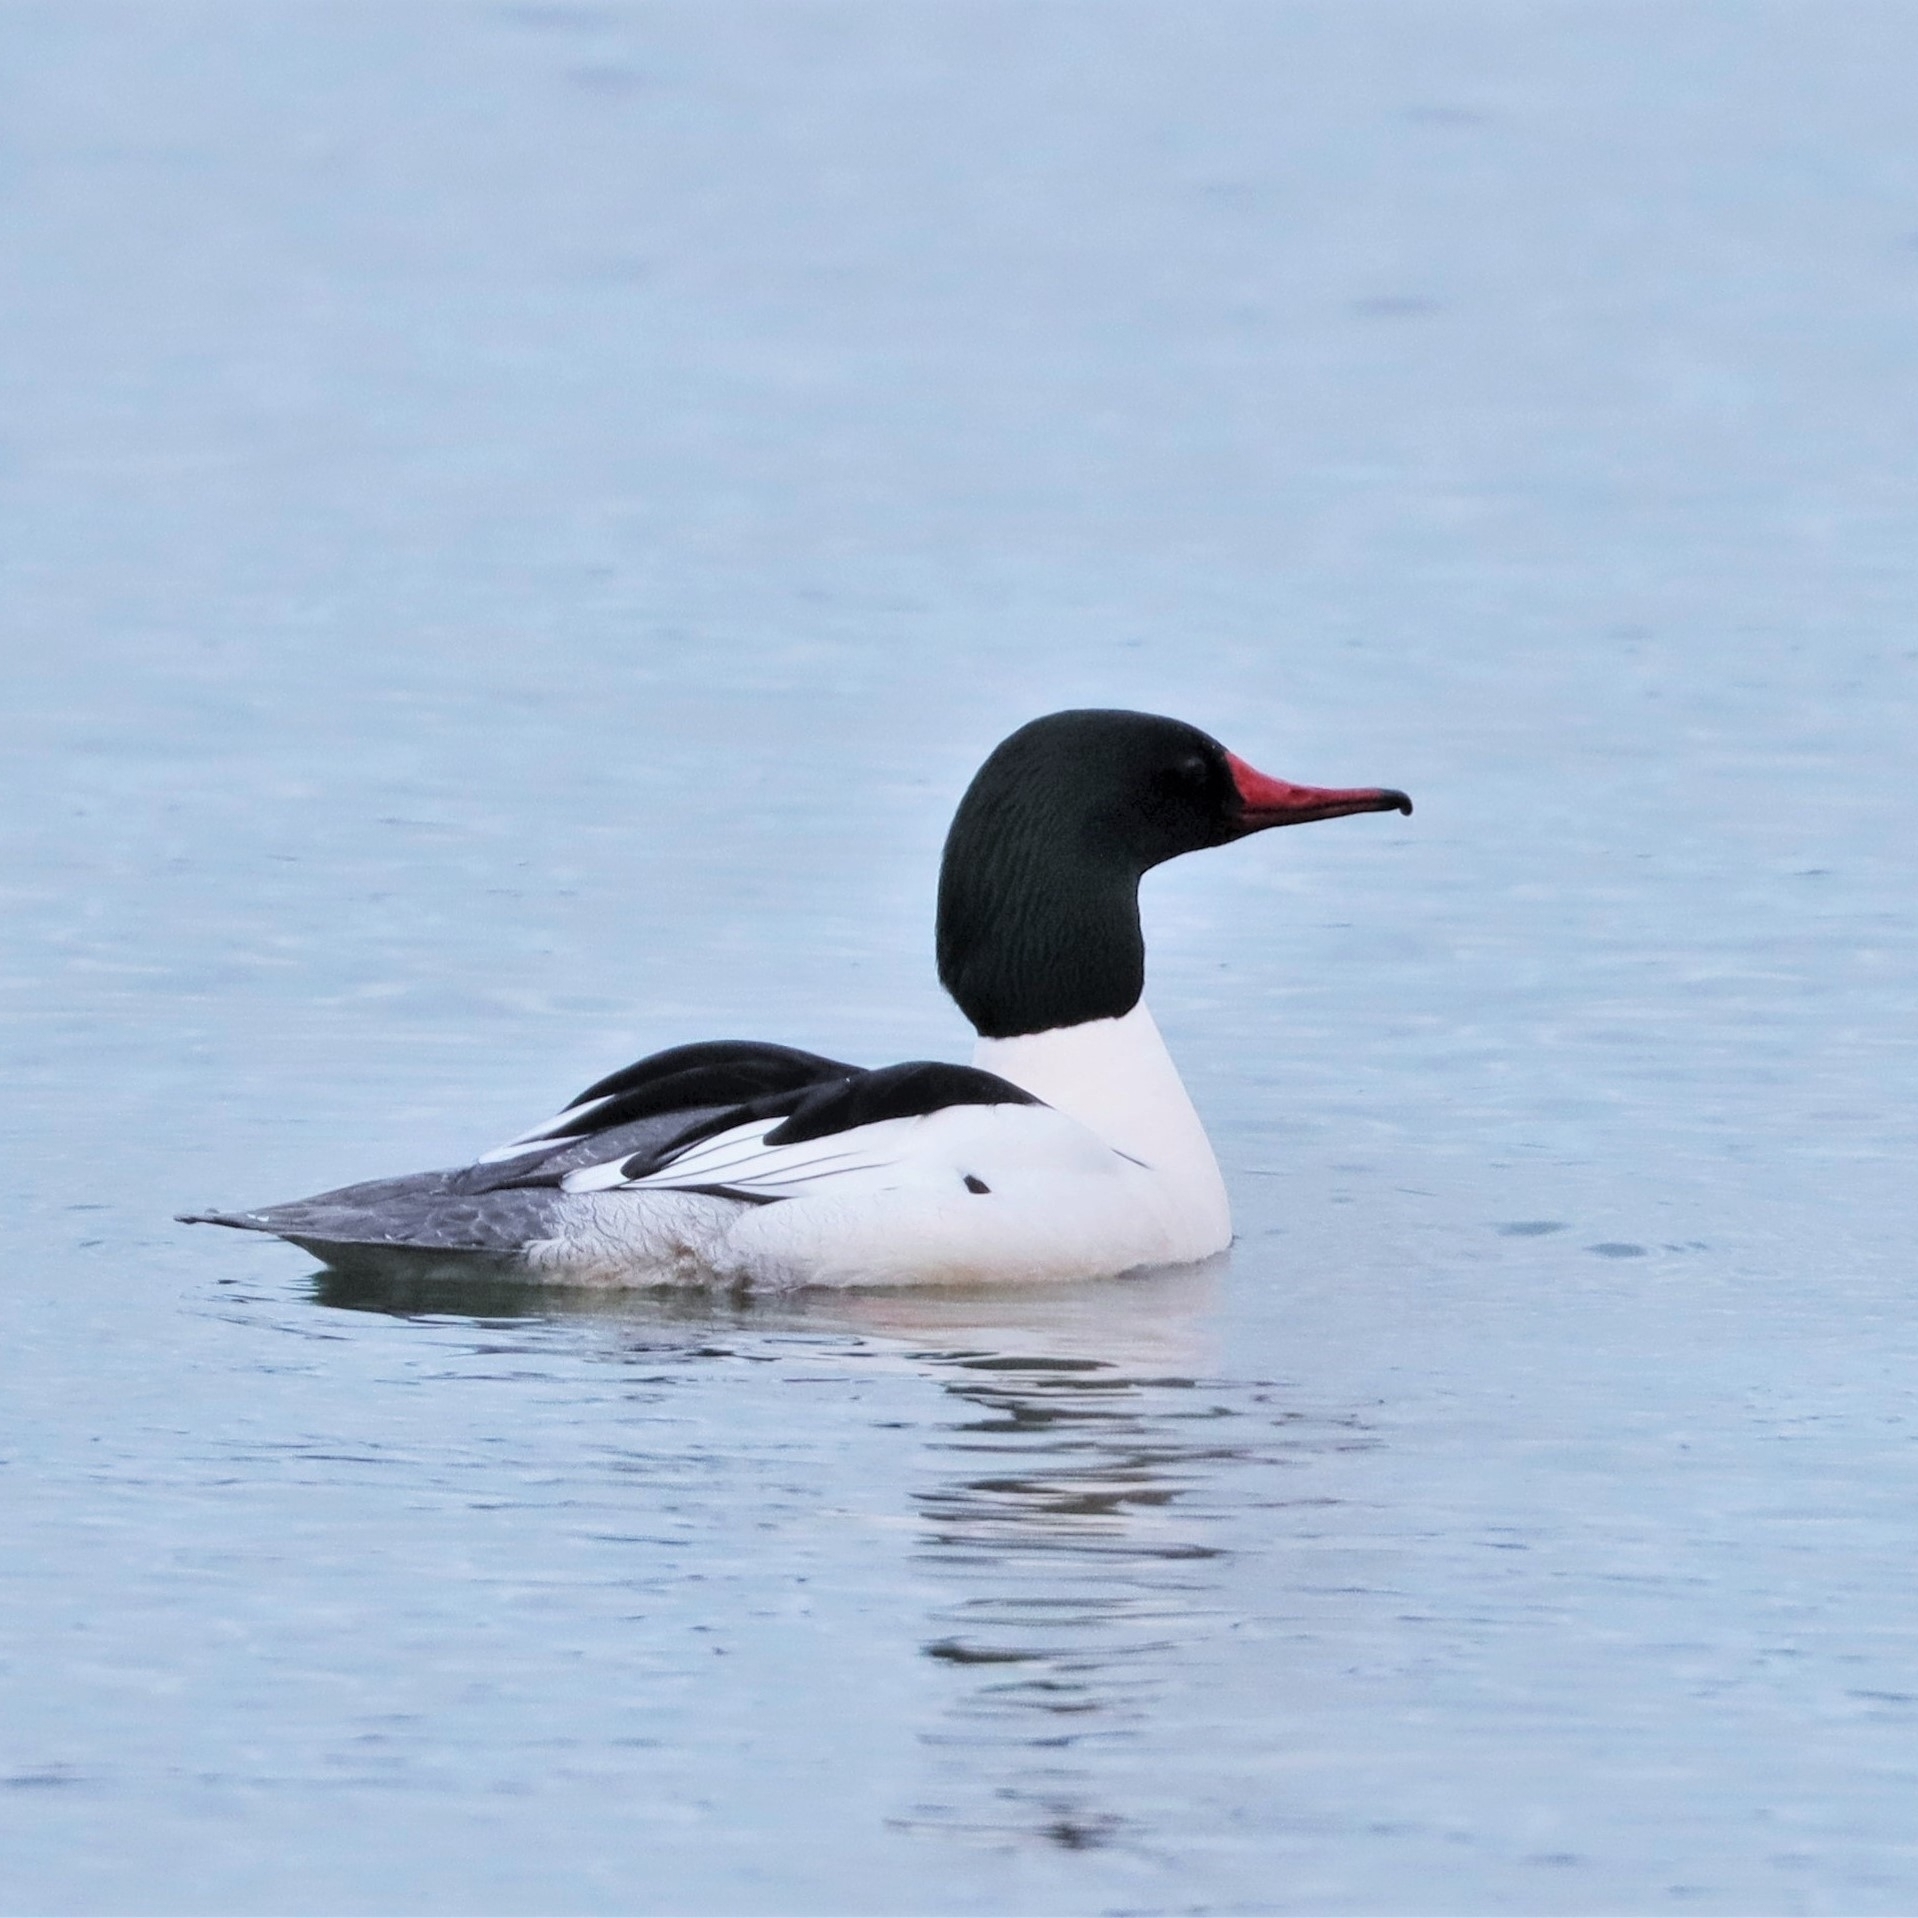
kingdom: Animalia
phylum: Chordata
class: Aves
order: Anseriformes
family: Anatidae
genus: Mergus
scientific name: Mergus merganser
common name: Common merganser
